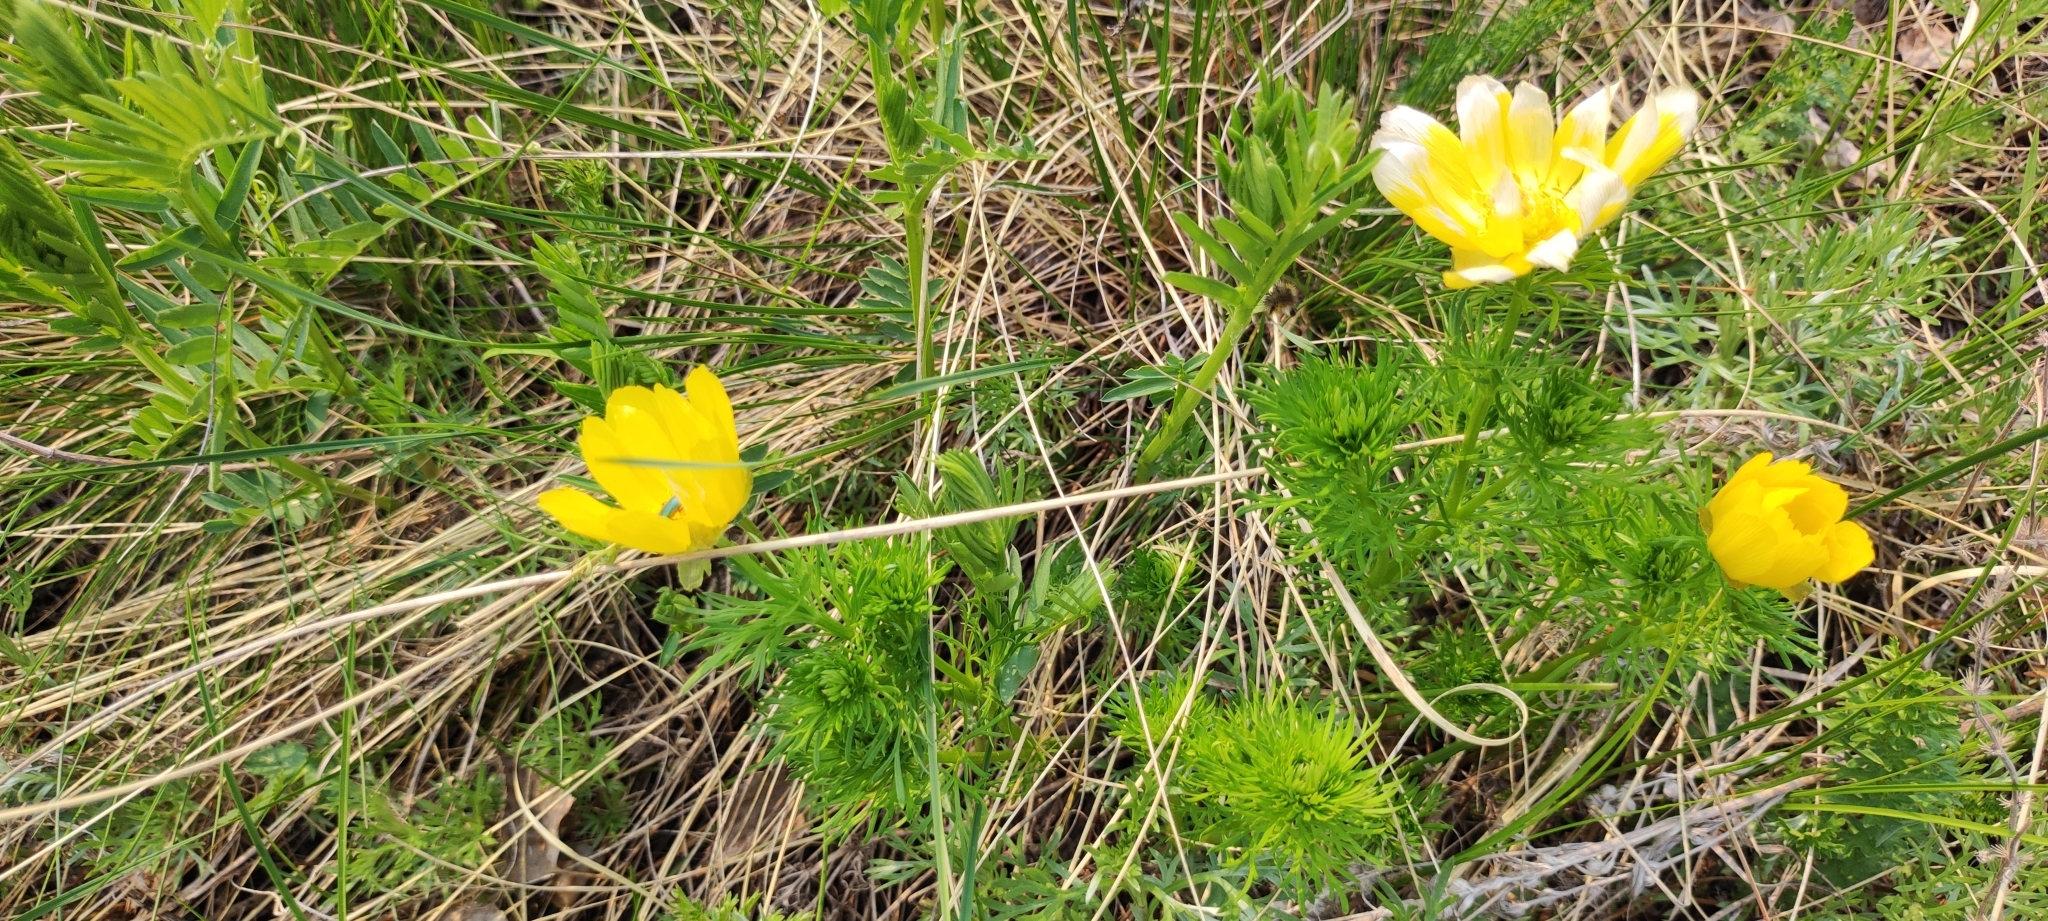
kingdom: Plantae
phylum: Tracheophyta
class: Magnoliopsida
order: Ranunculales
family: Ranunculaceae
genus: Adonis
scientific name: Adonis vernalis
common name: Yellow pheasants-eye
